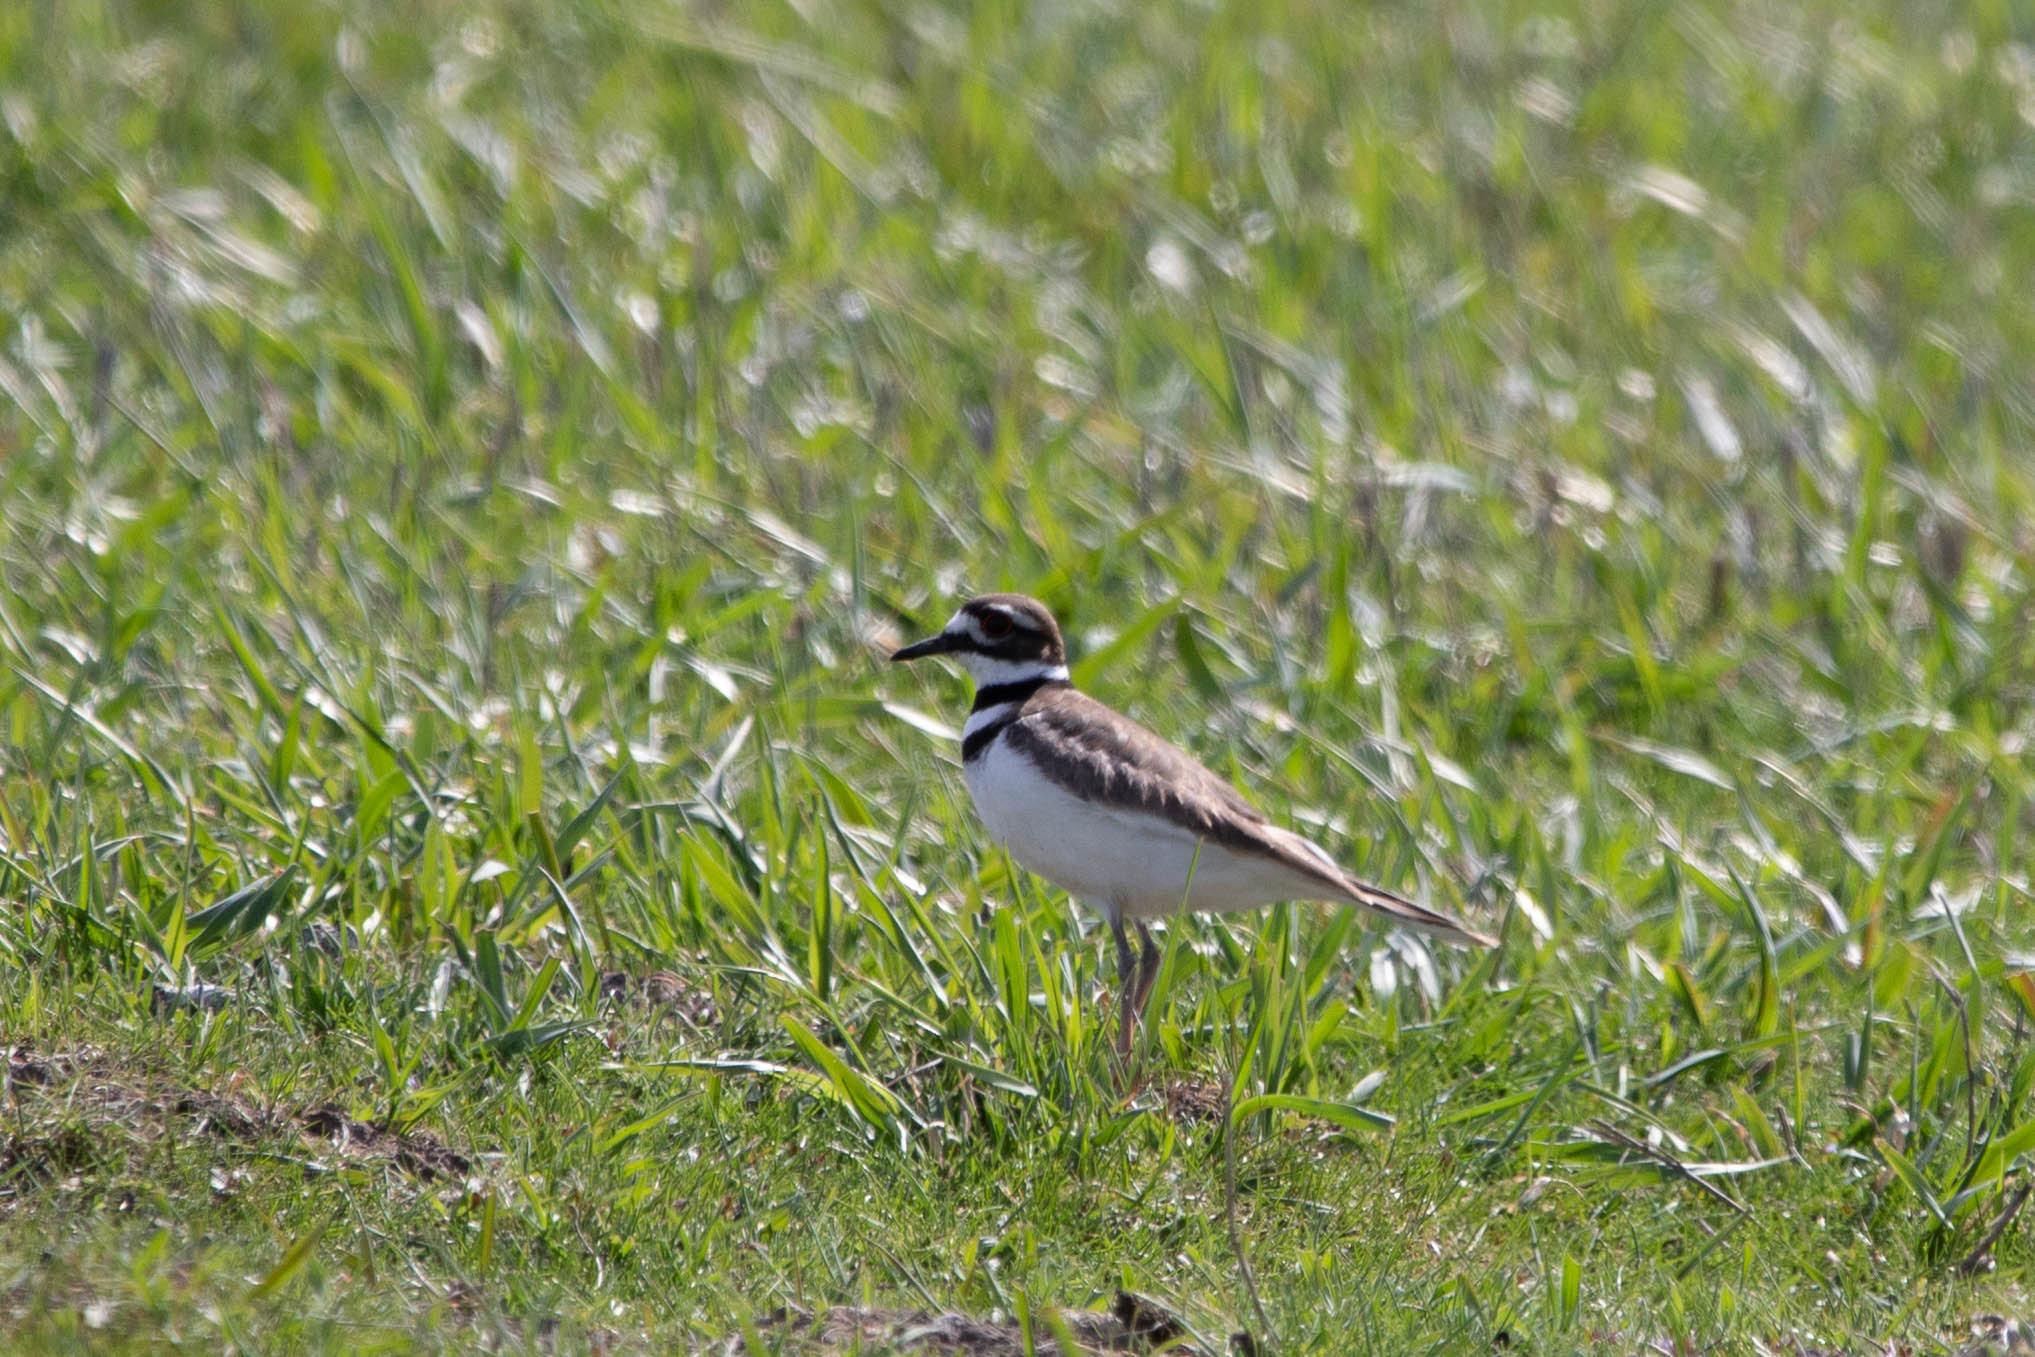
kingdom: Animalia
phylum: Chordata
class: Aves
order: Charadriiformes
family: Charadriidae
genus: Charadrius
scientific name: Charadrius vociferus
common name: Killdeer
